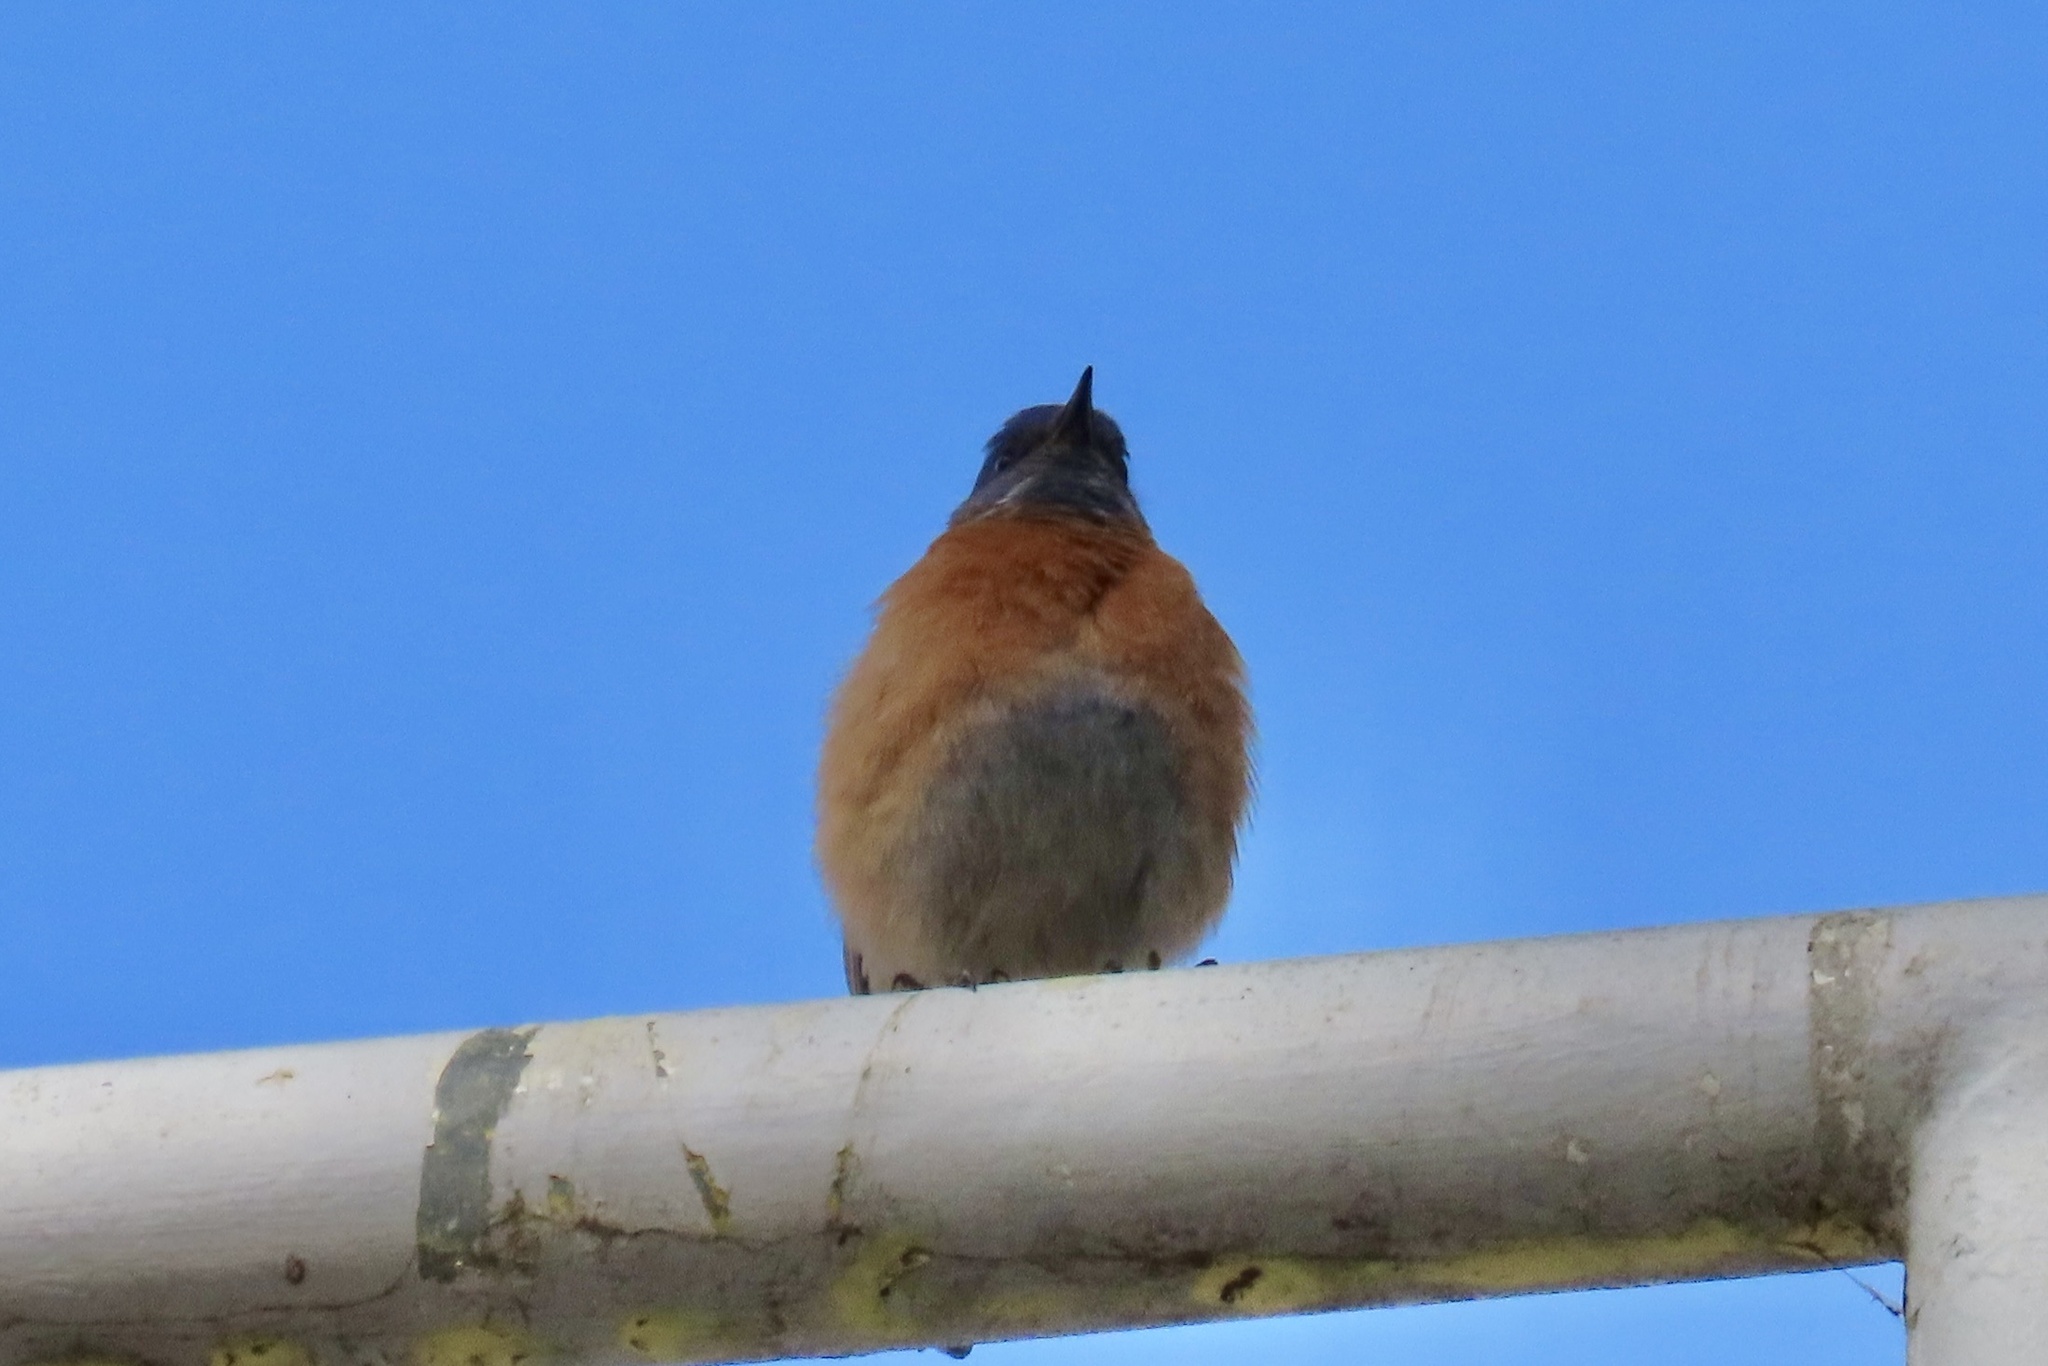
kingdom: Animalia
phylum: Chordata
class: Aves
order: Passeriformes
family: Turdidae
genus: Sialia
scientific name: Sialia mexicana
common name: Western bluebird
